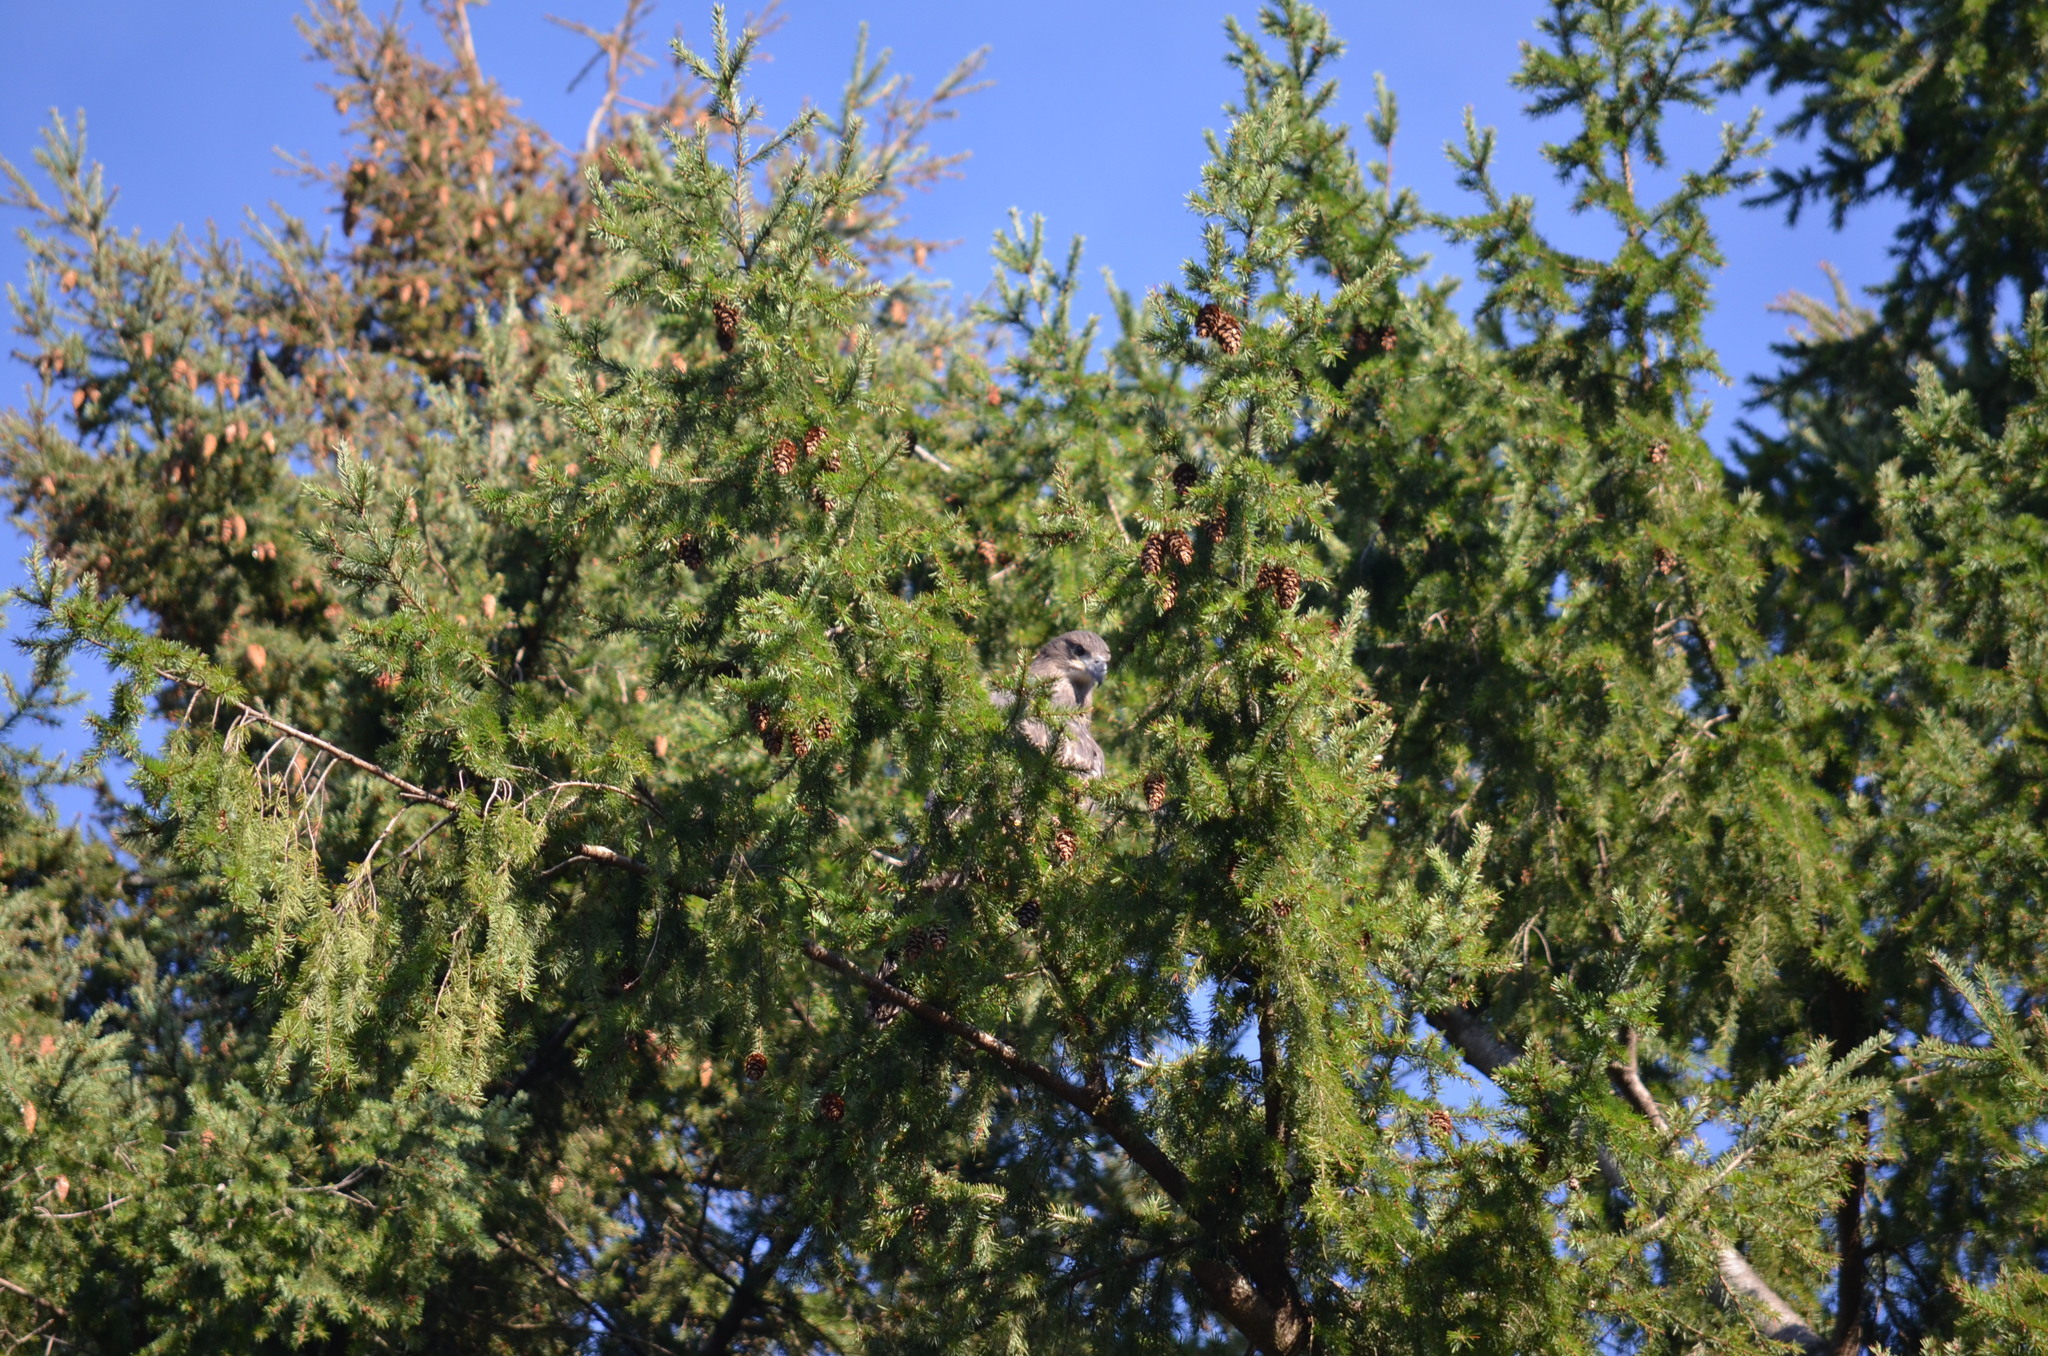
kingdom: Animalia
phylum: Chordata
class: Aves
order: Accipitriformes
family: Accipitridae
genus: Haliaeetus
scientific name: Haliaeetus leucocephalus
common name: Bald eagle
